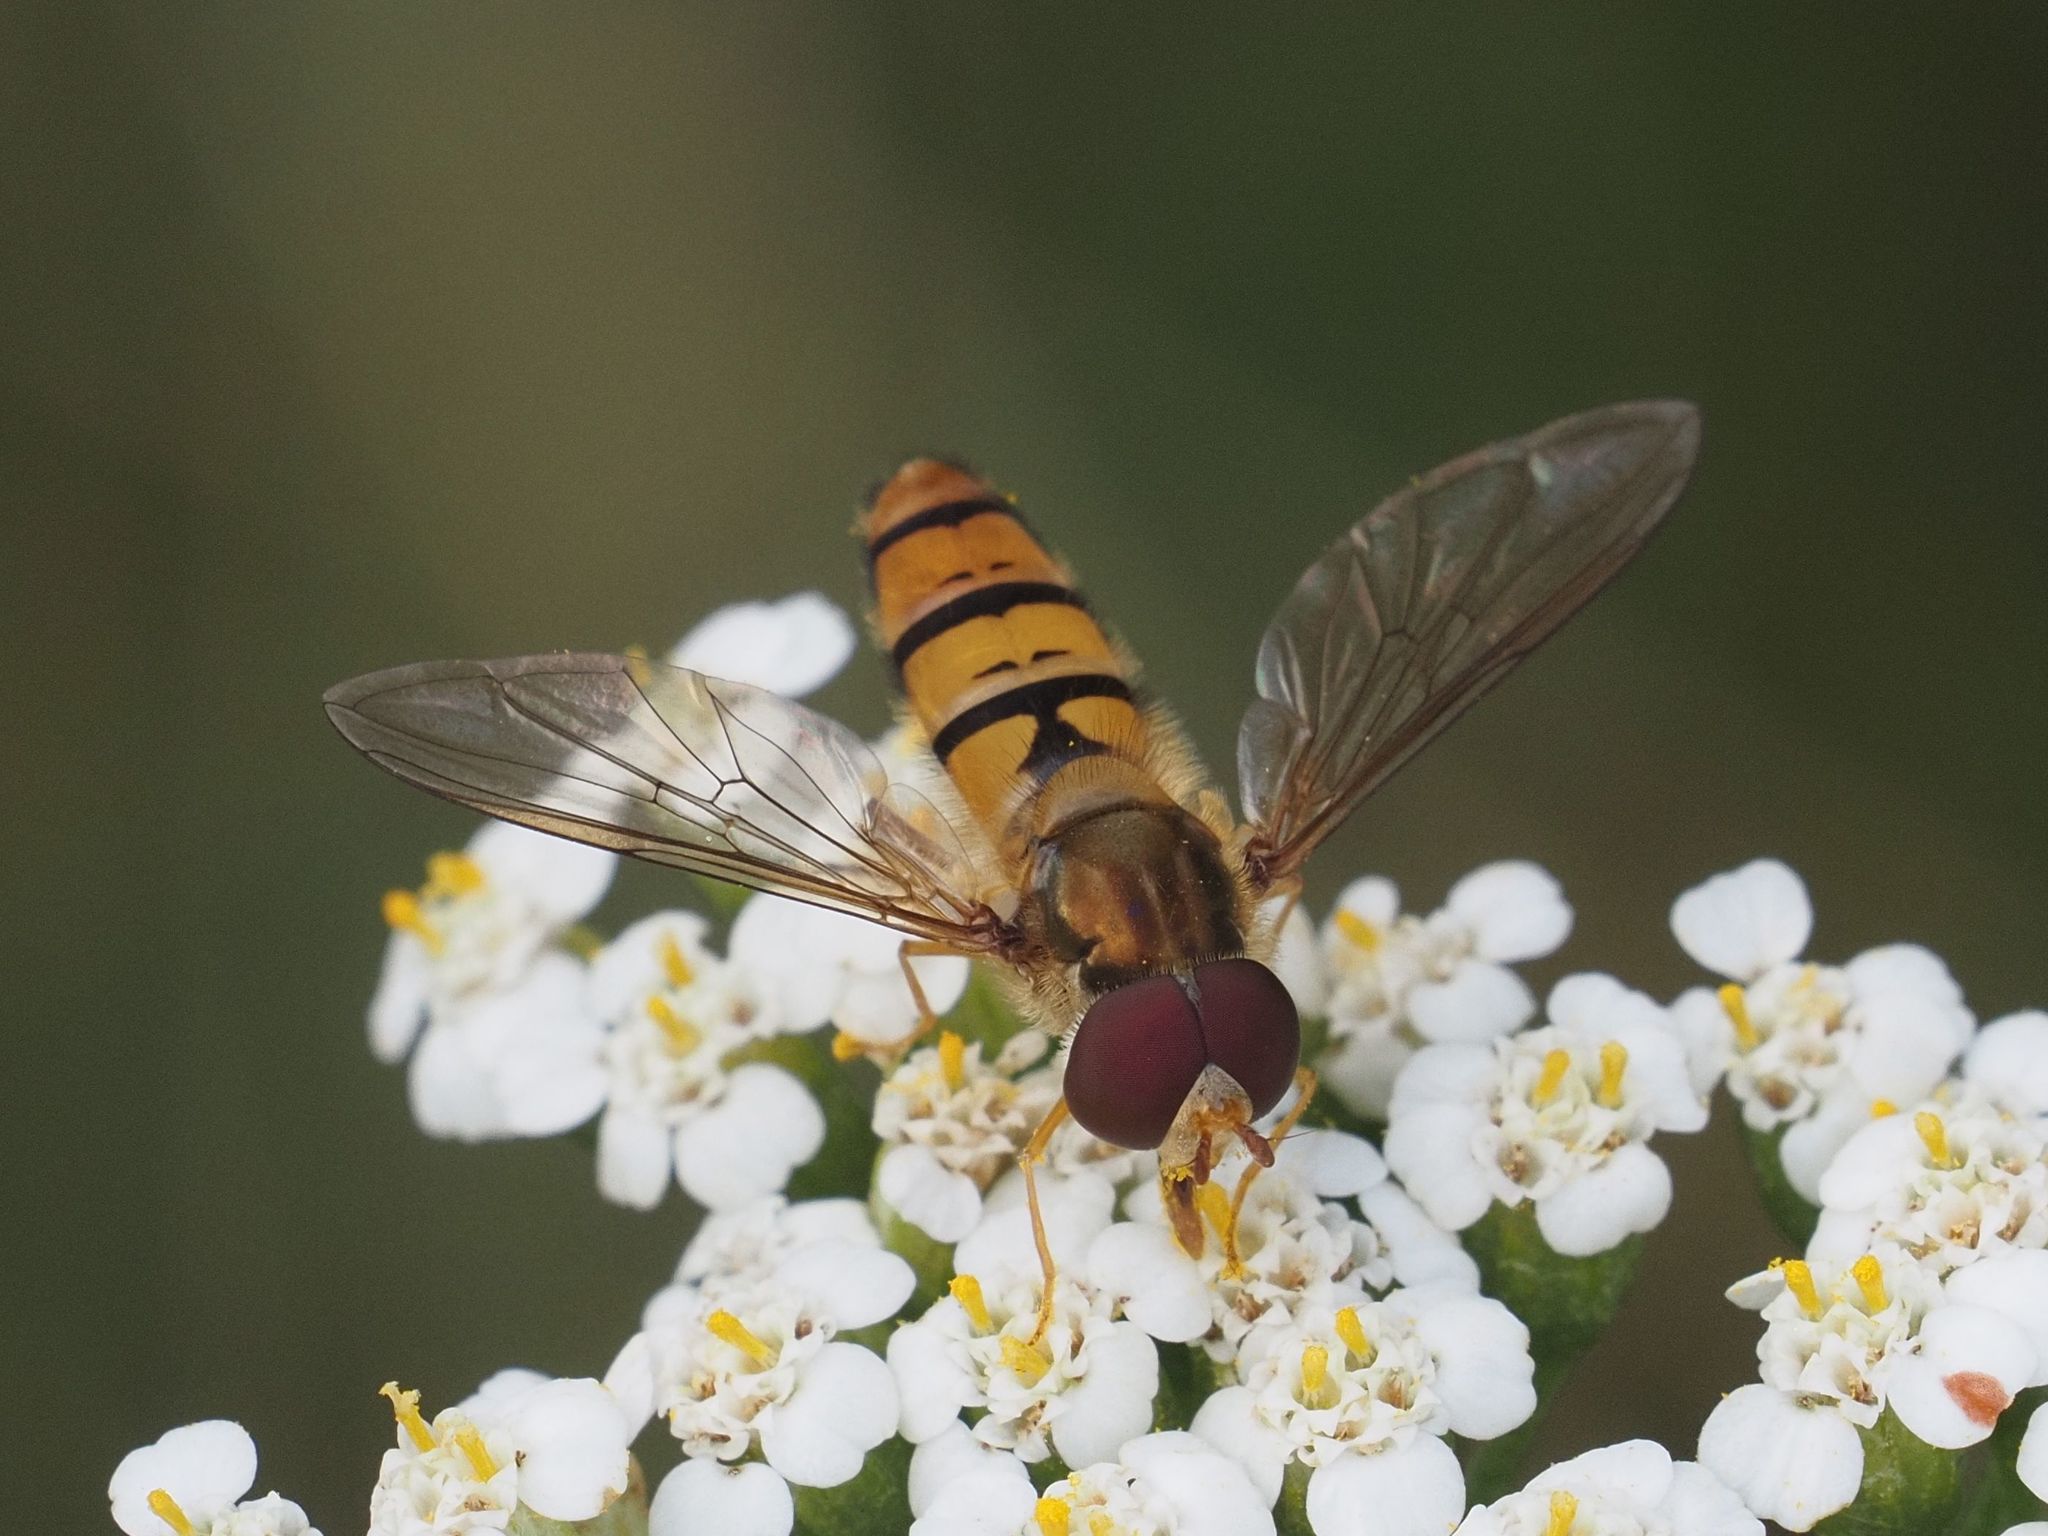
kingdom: Animalia
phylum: Arthropoda
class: Insecta
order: Diptera
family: Syrphidae
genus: Episyrphus
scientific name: Episyrphus balteatus
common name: Marmalade hoverfly
